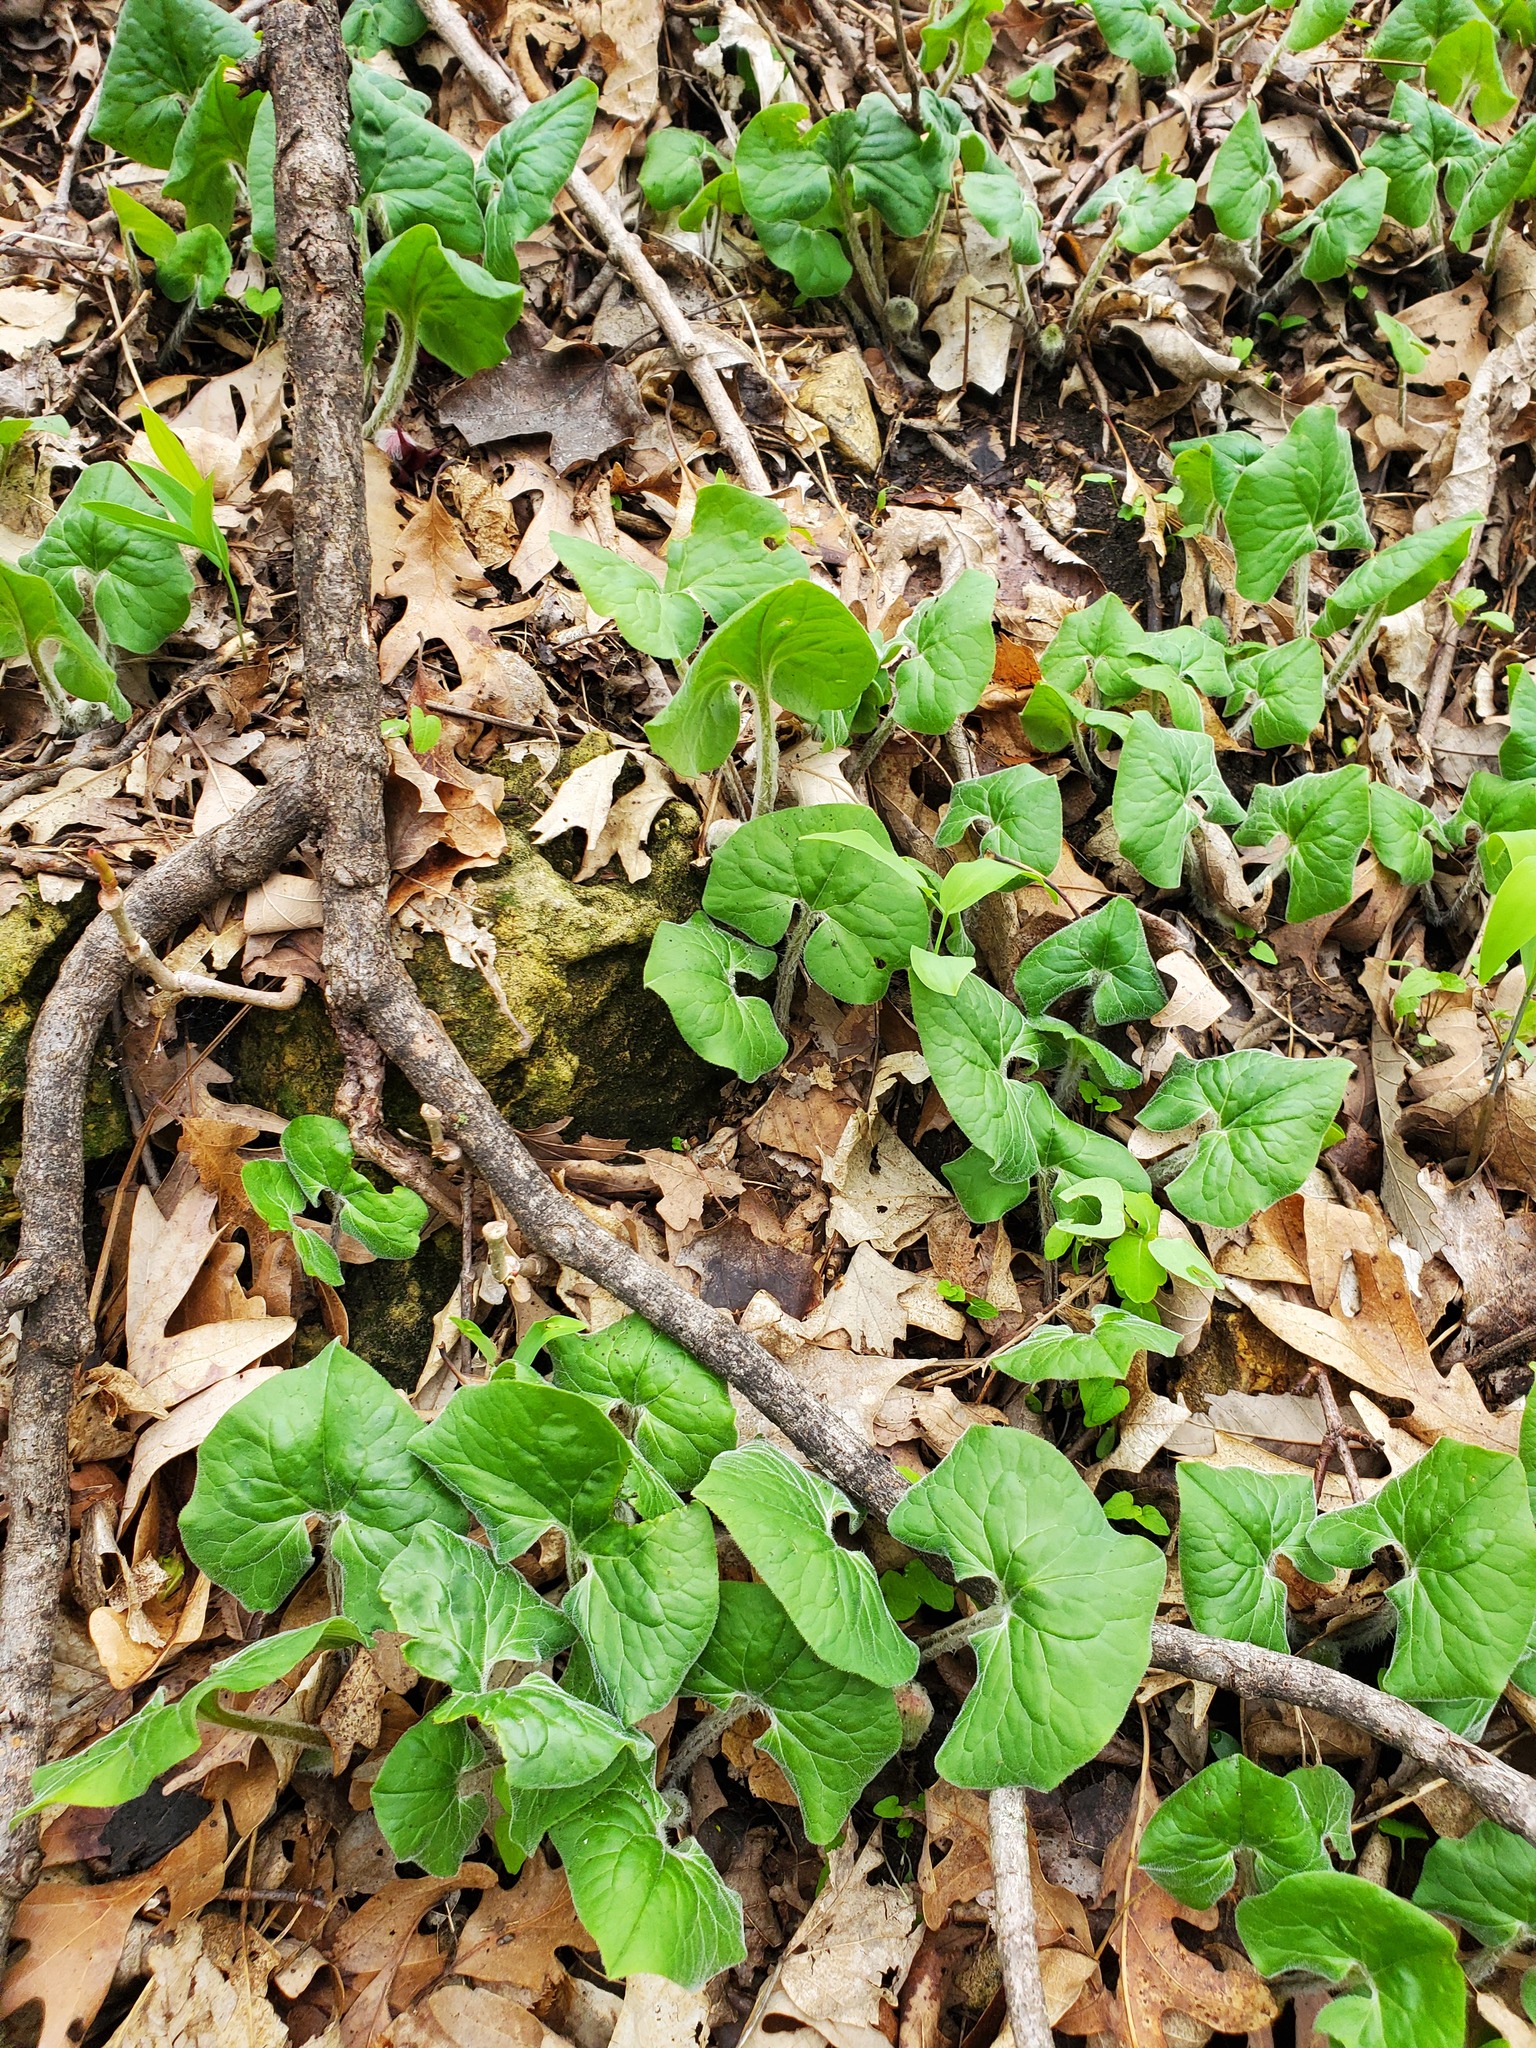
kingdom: Plantae
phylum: Tracheophyta
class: Magnoliopsida
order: Piperales
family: Aristolochiaceae
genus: Asarum
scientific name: Asarum canadense
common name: Wild ginger
